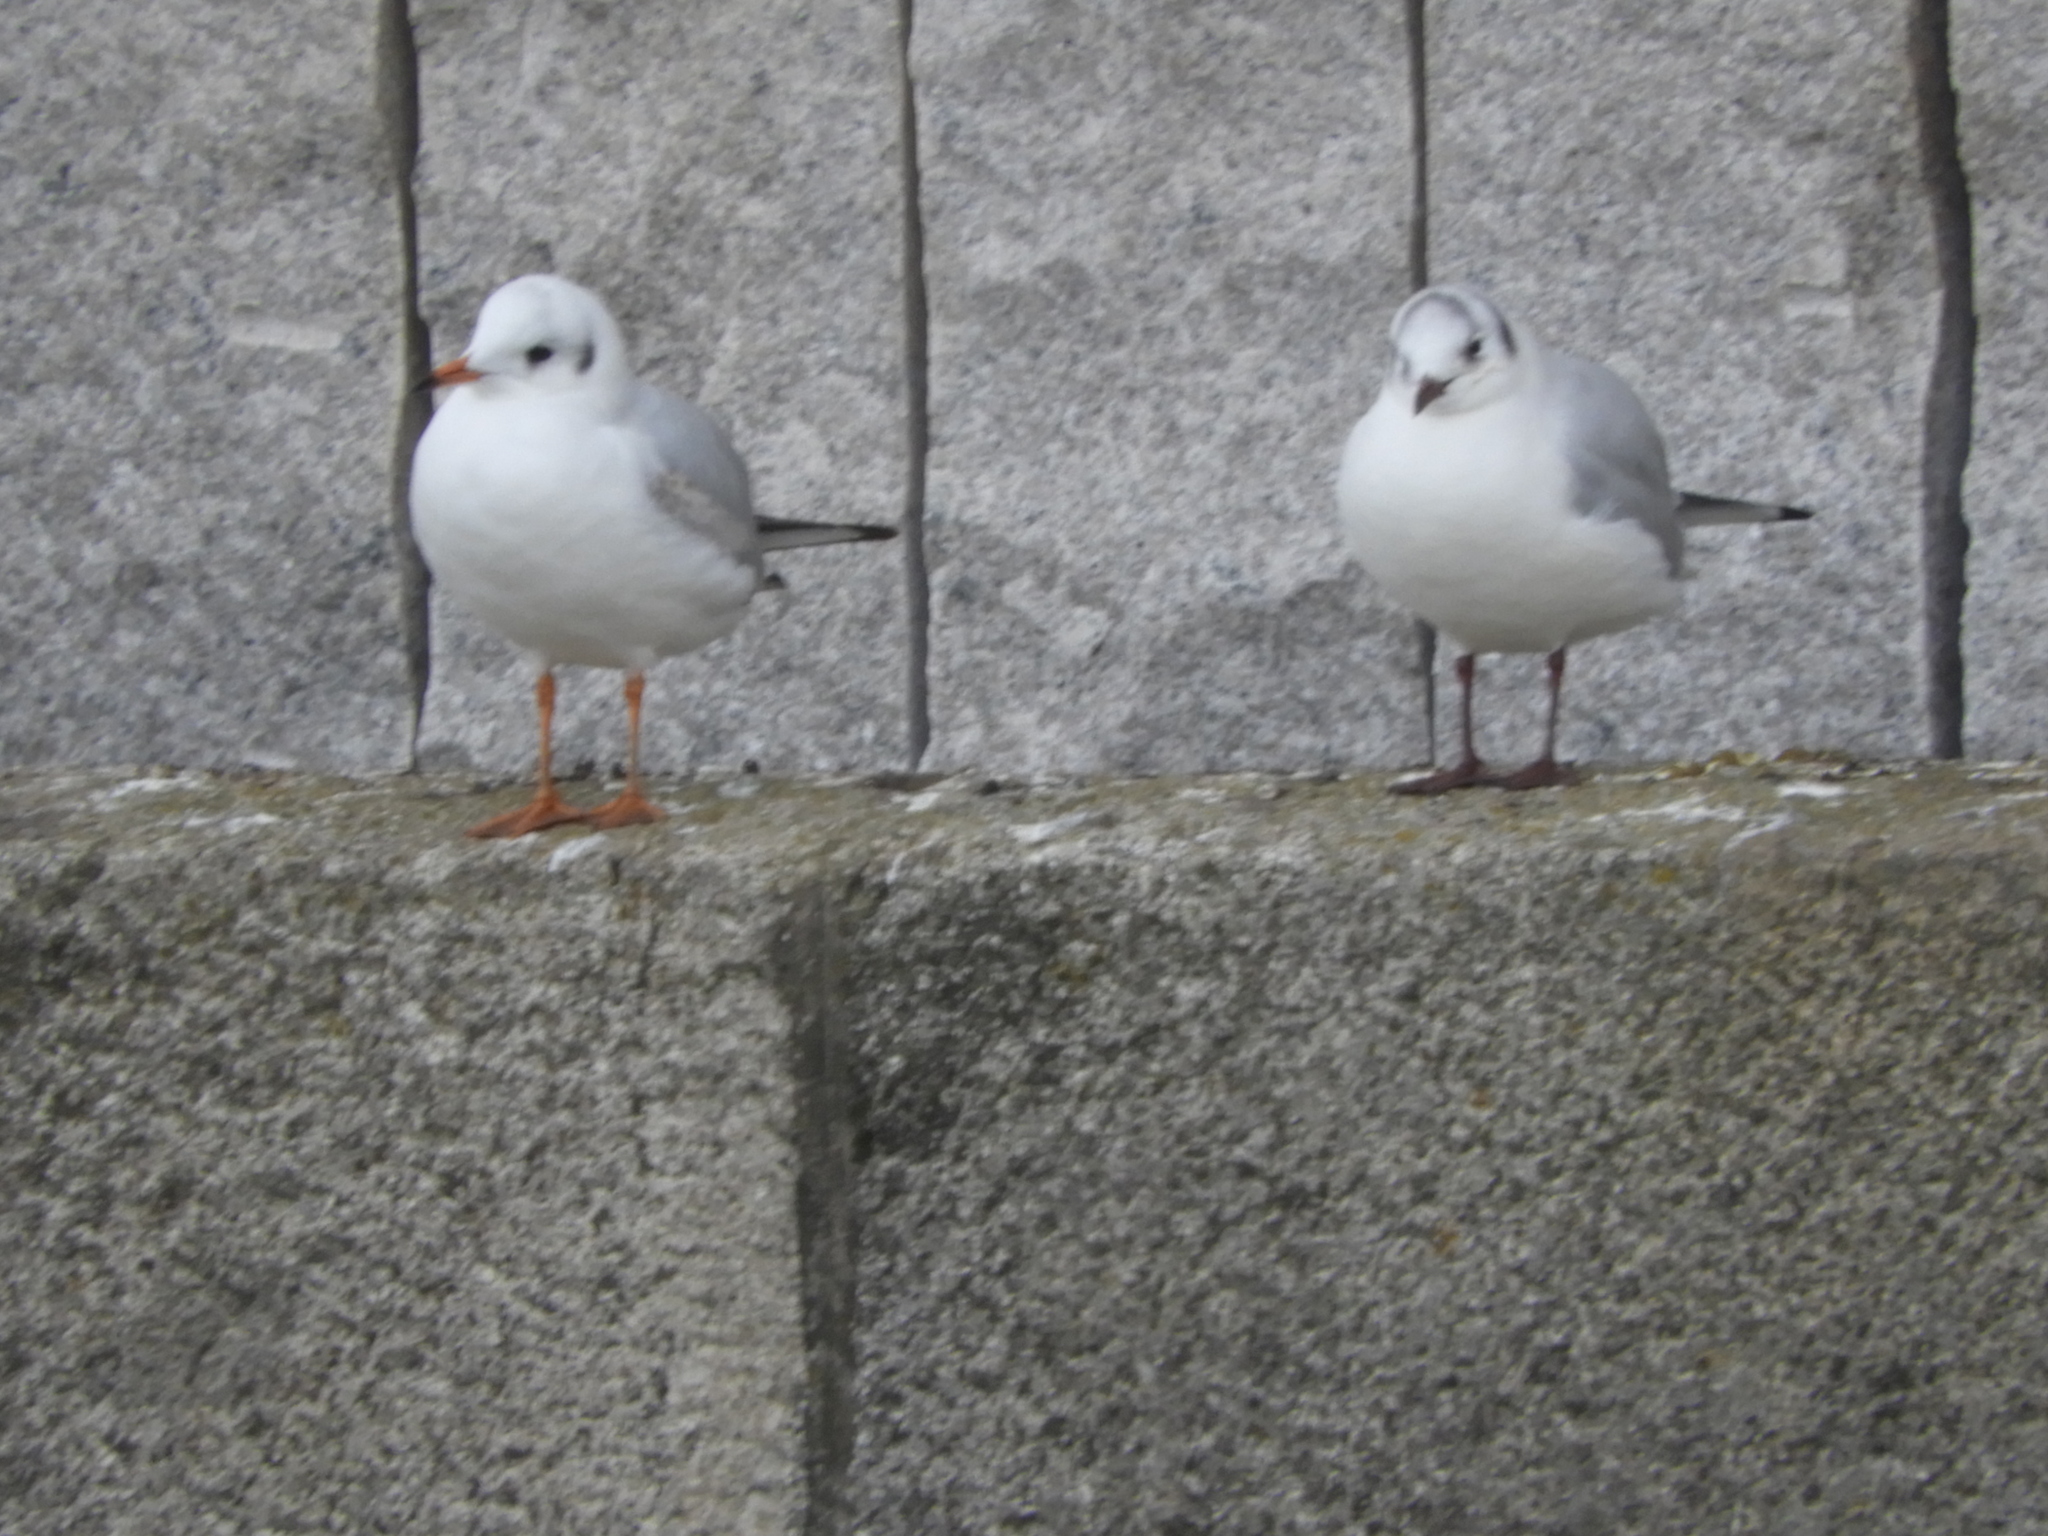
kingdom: Animalia
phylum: Chordata
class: Aves
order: Charadriiformes
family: Laridae
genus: Chroicocephalus
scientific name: Chroicocephalus ridibundus
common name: Black-headed gull
